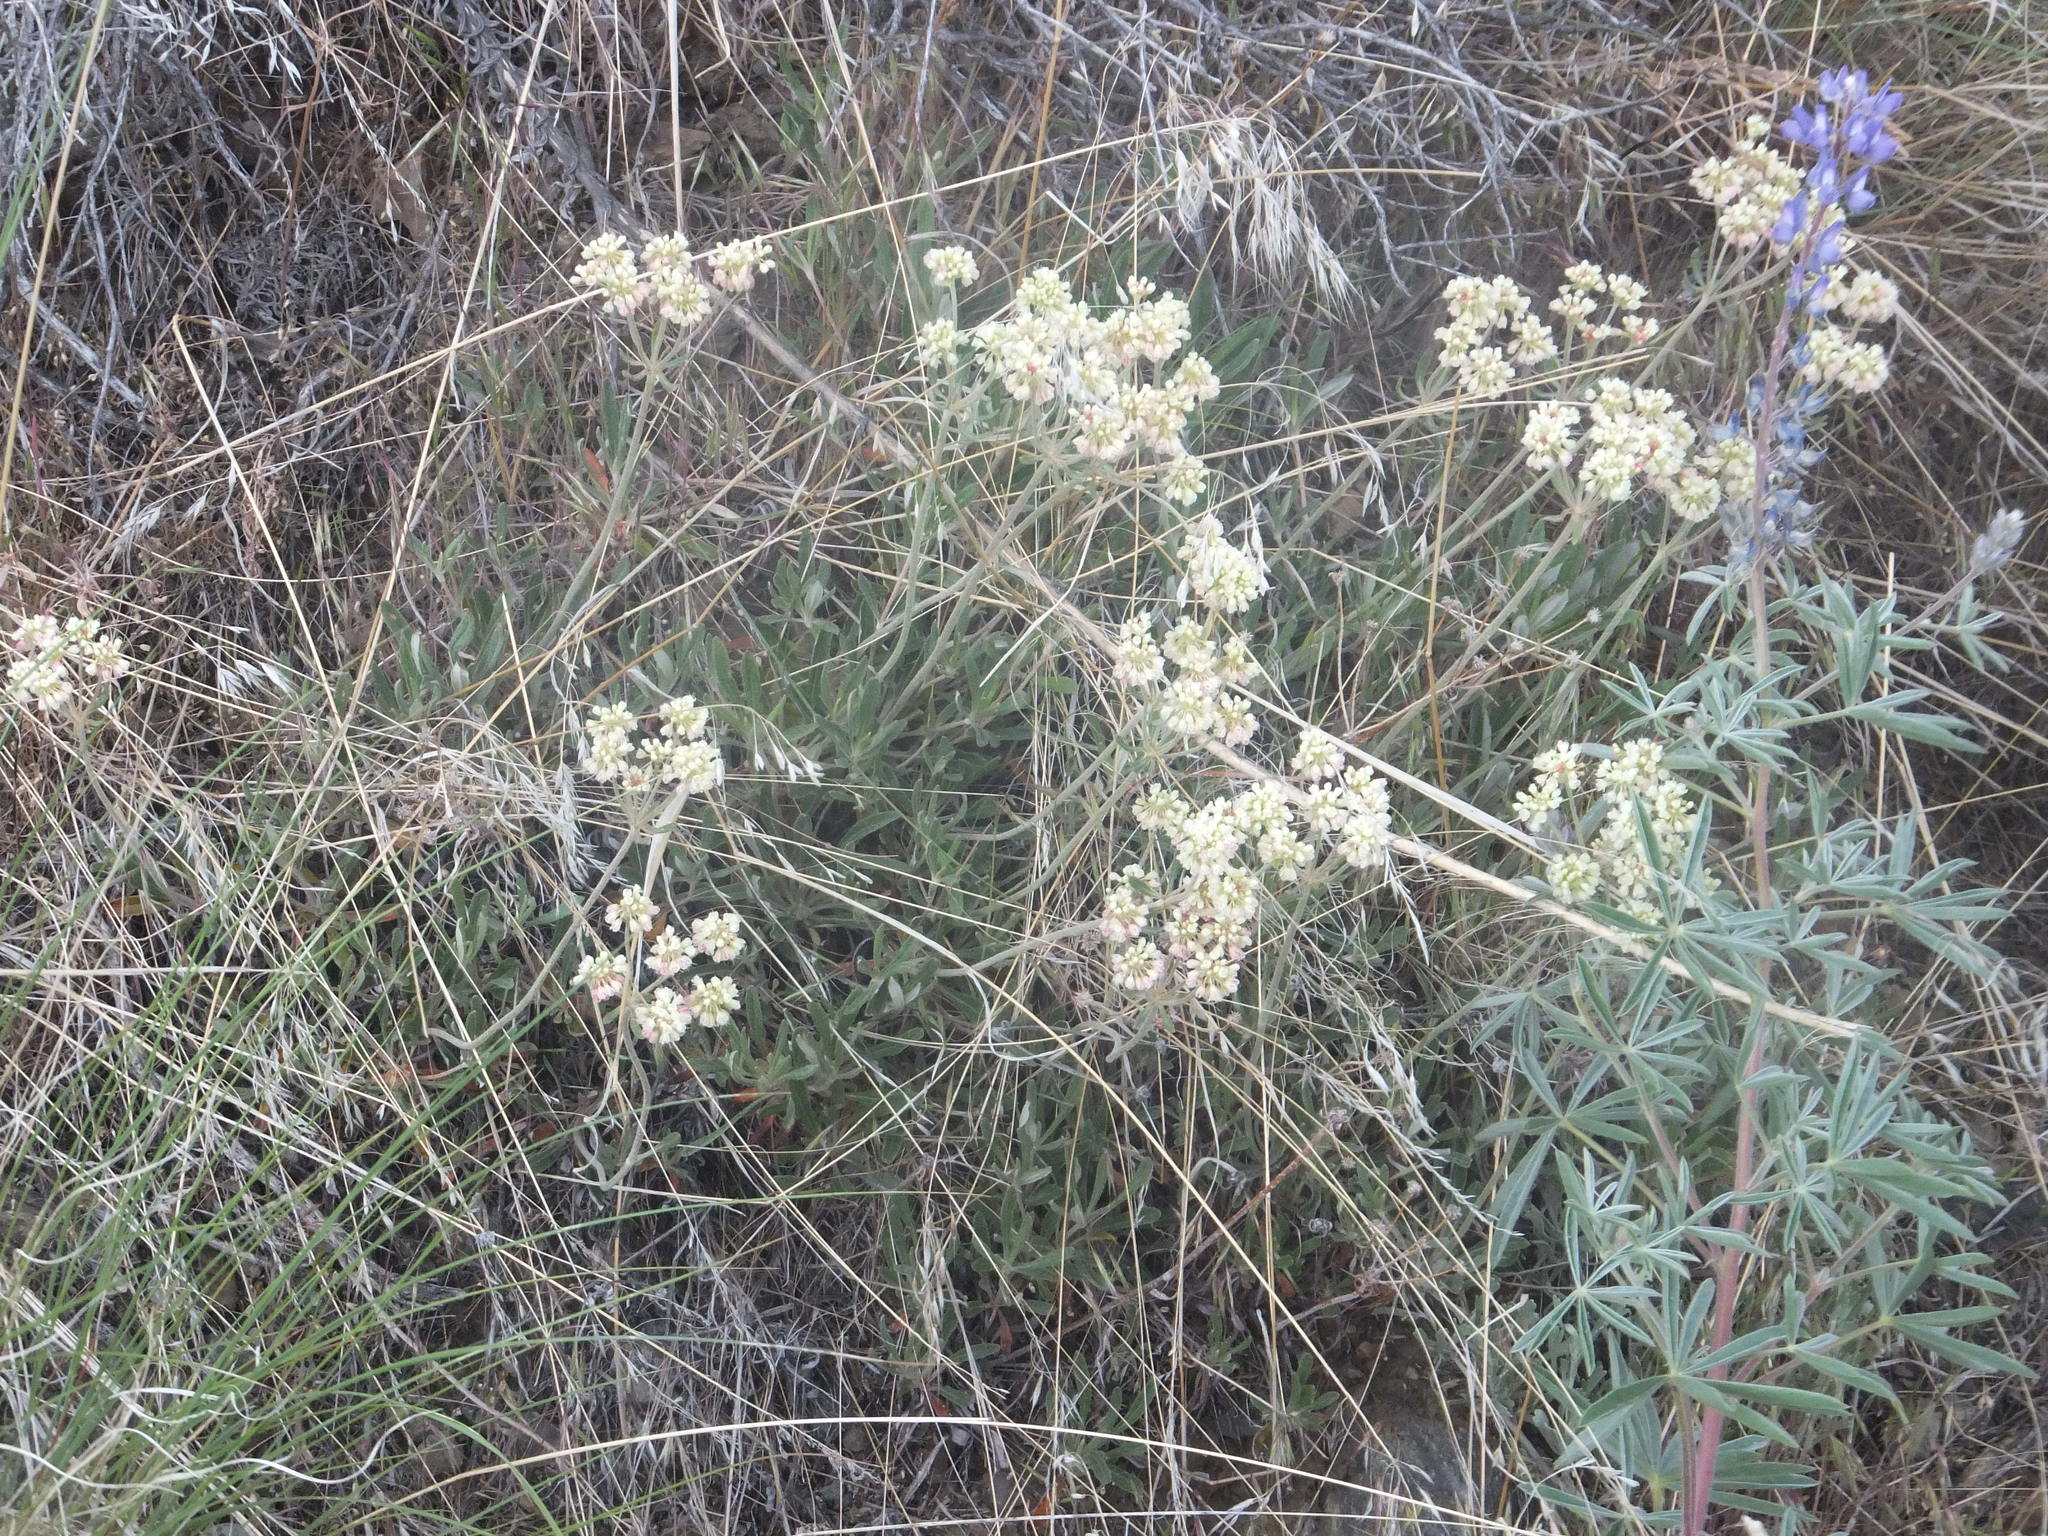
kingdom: Plantae
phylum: Tracheophyta
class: Magnoliopsida
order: Caryophyllales
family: Polygonaceae
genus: Eriogonum
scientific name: Eriogonum heracleoides
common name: Wyeth's buckwheat
